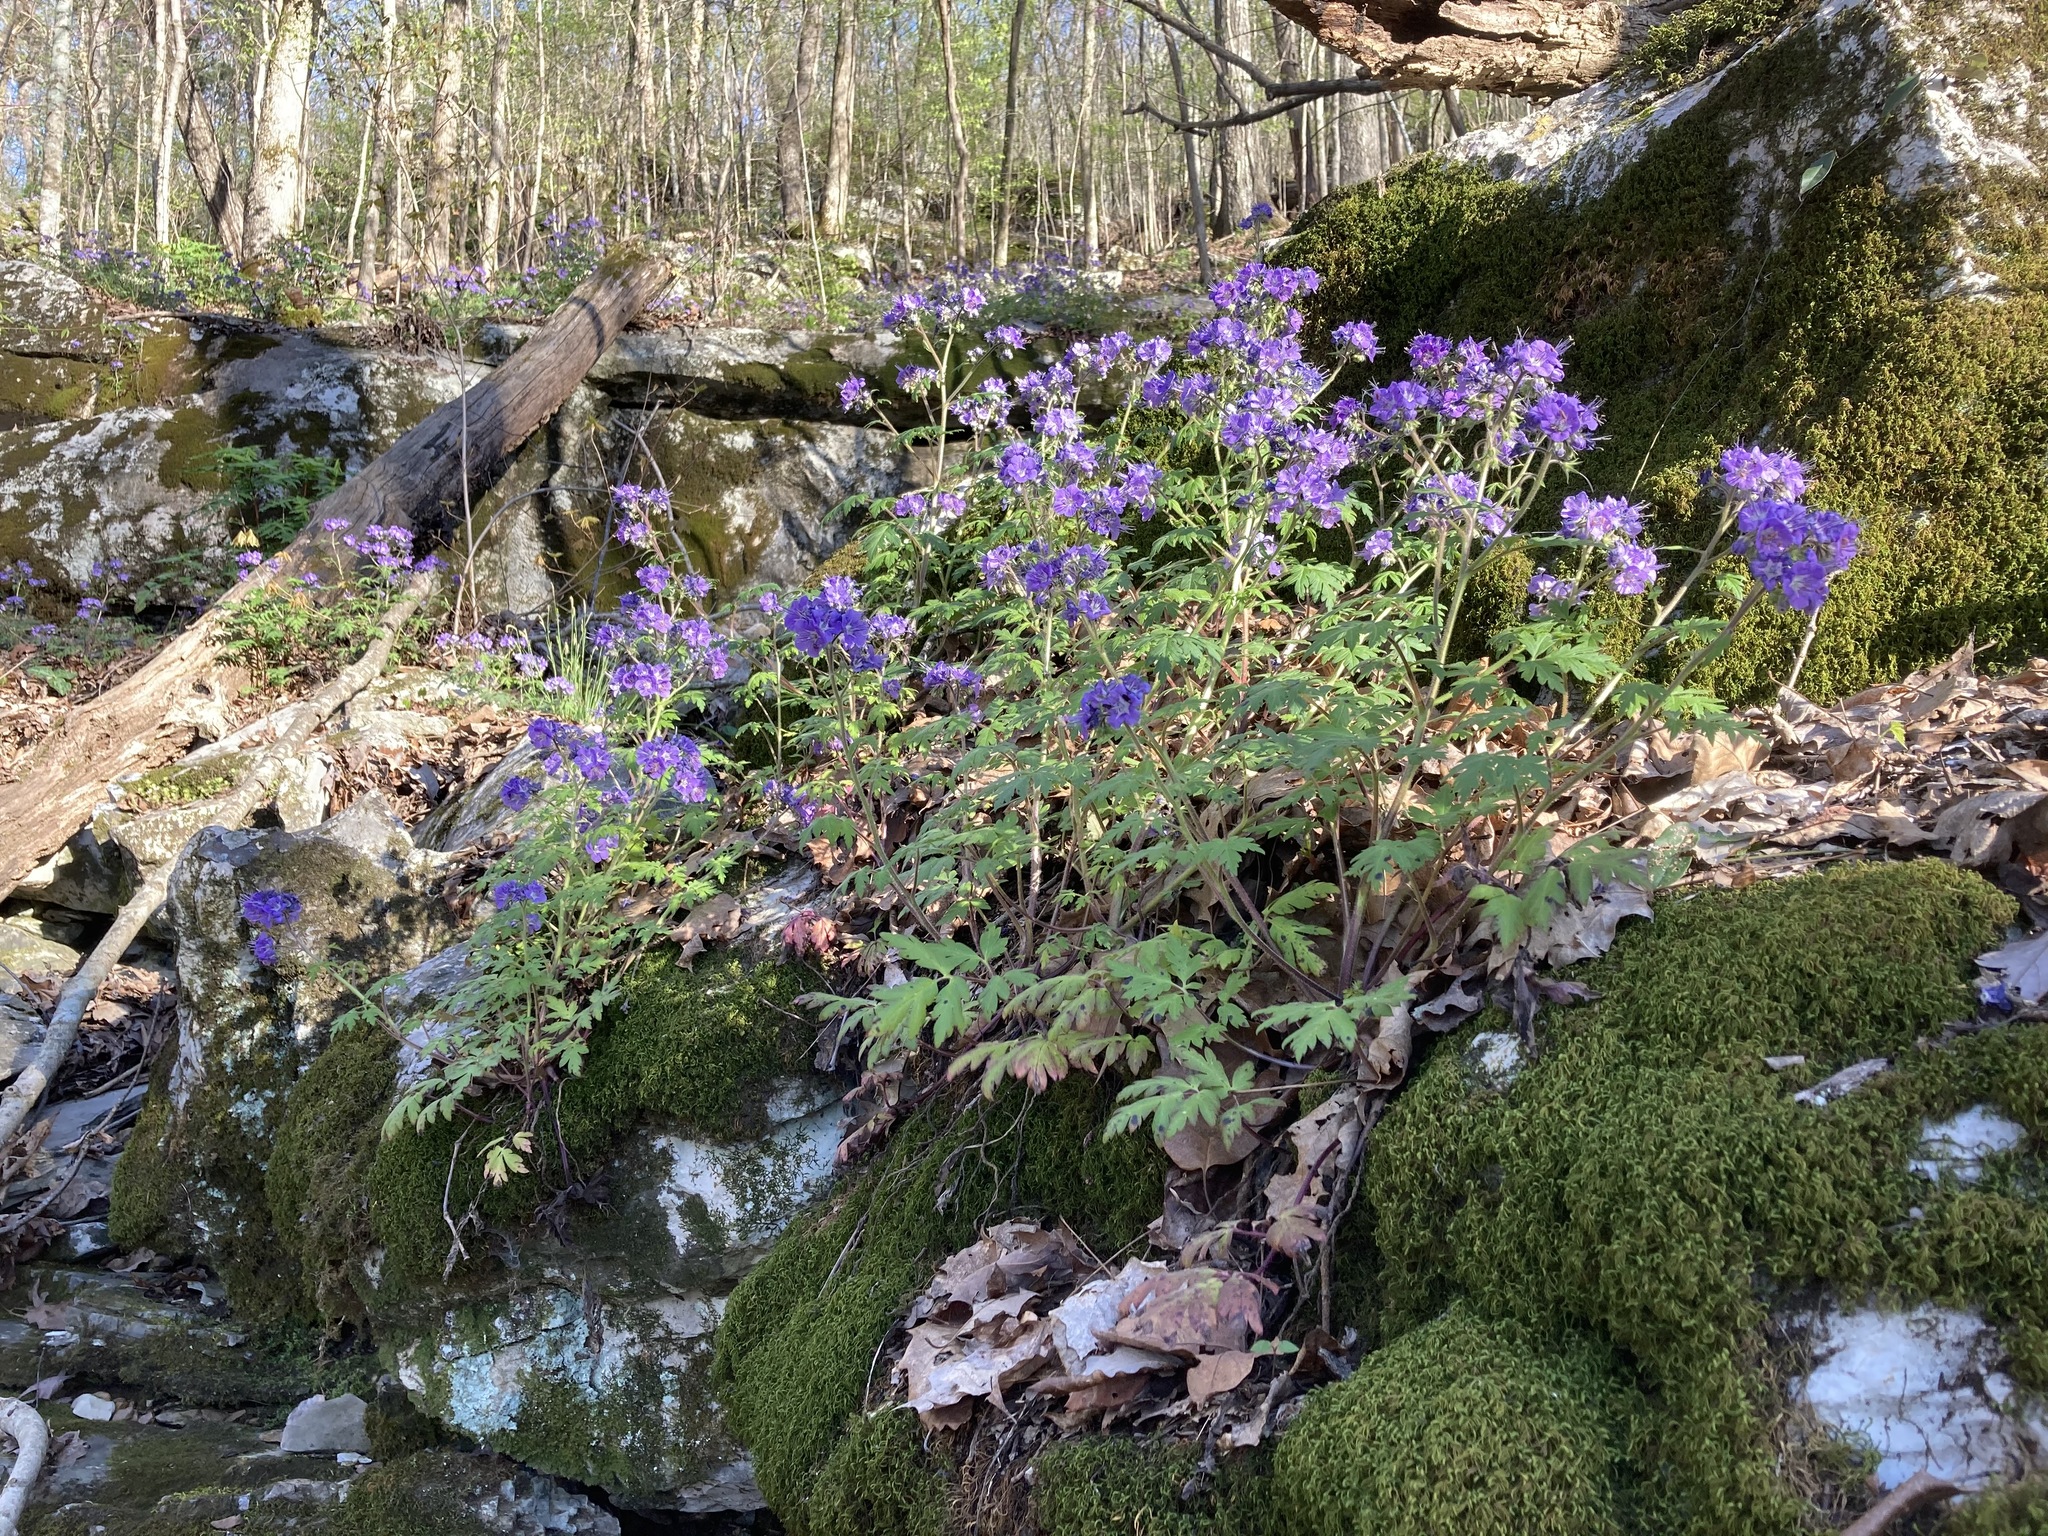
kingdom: Plantae
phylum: Tracheophyta
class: Magnoliopsida
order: Boraginales
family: Hydrophyllaceae
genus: Phacelia
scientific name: Phacelia bipinnatifida
